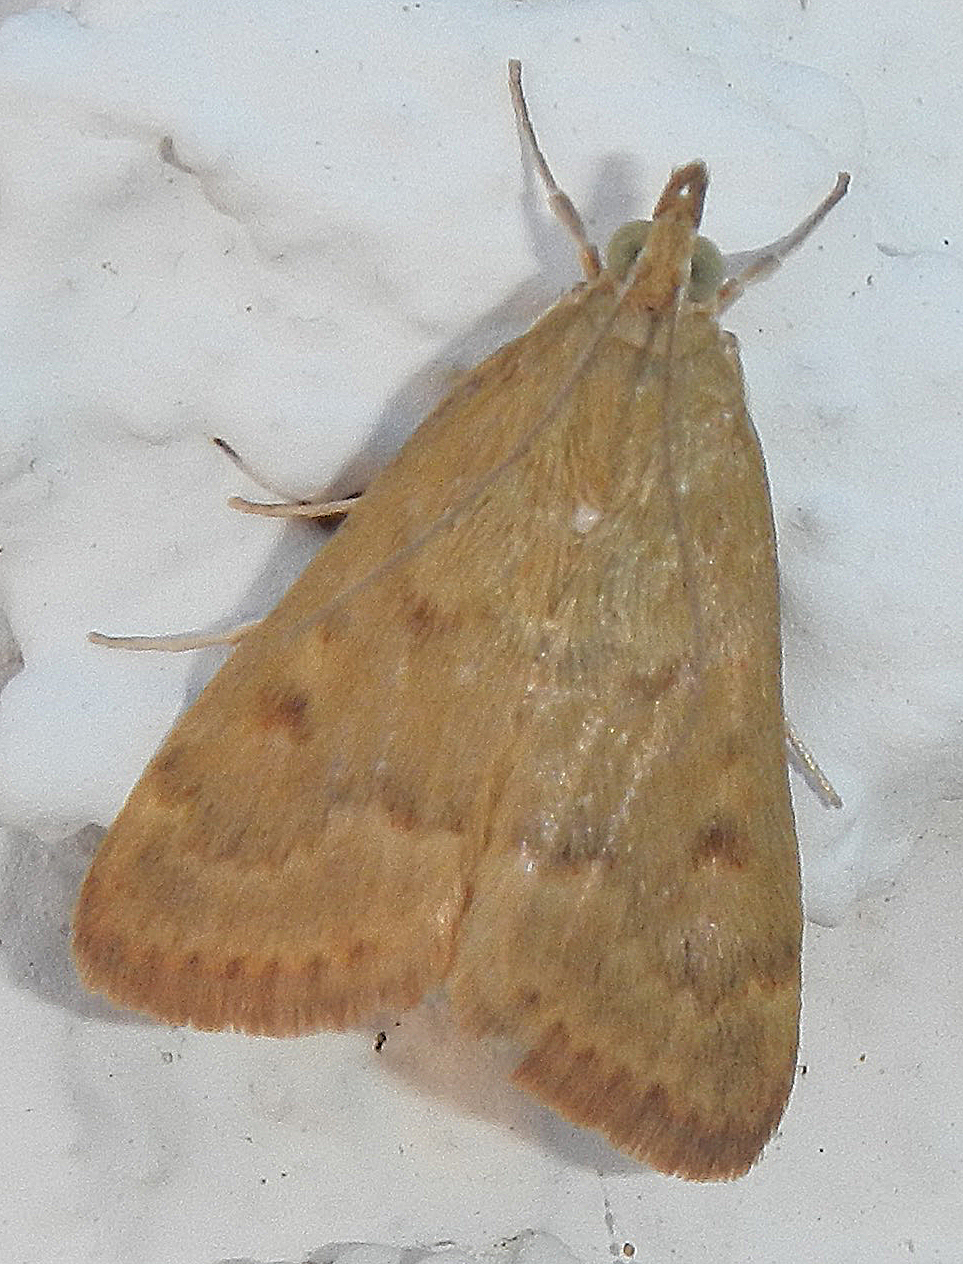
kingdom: Animalia
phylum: Arthropoda
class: Insecta
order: Lepidoptera
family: Crambidae
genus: Achyra
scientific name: Achyra rantalis
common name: Garden webworm
